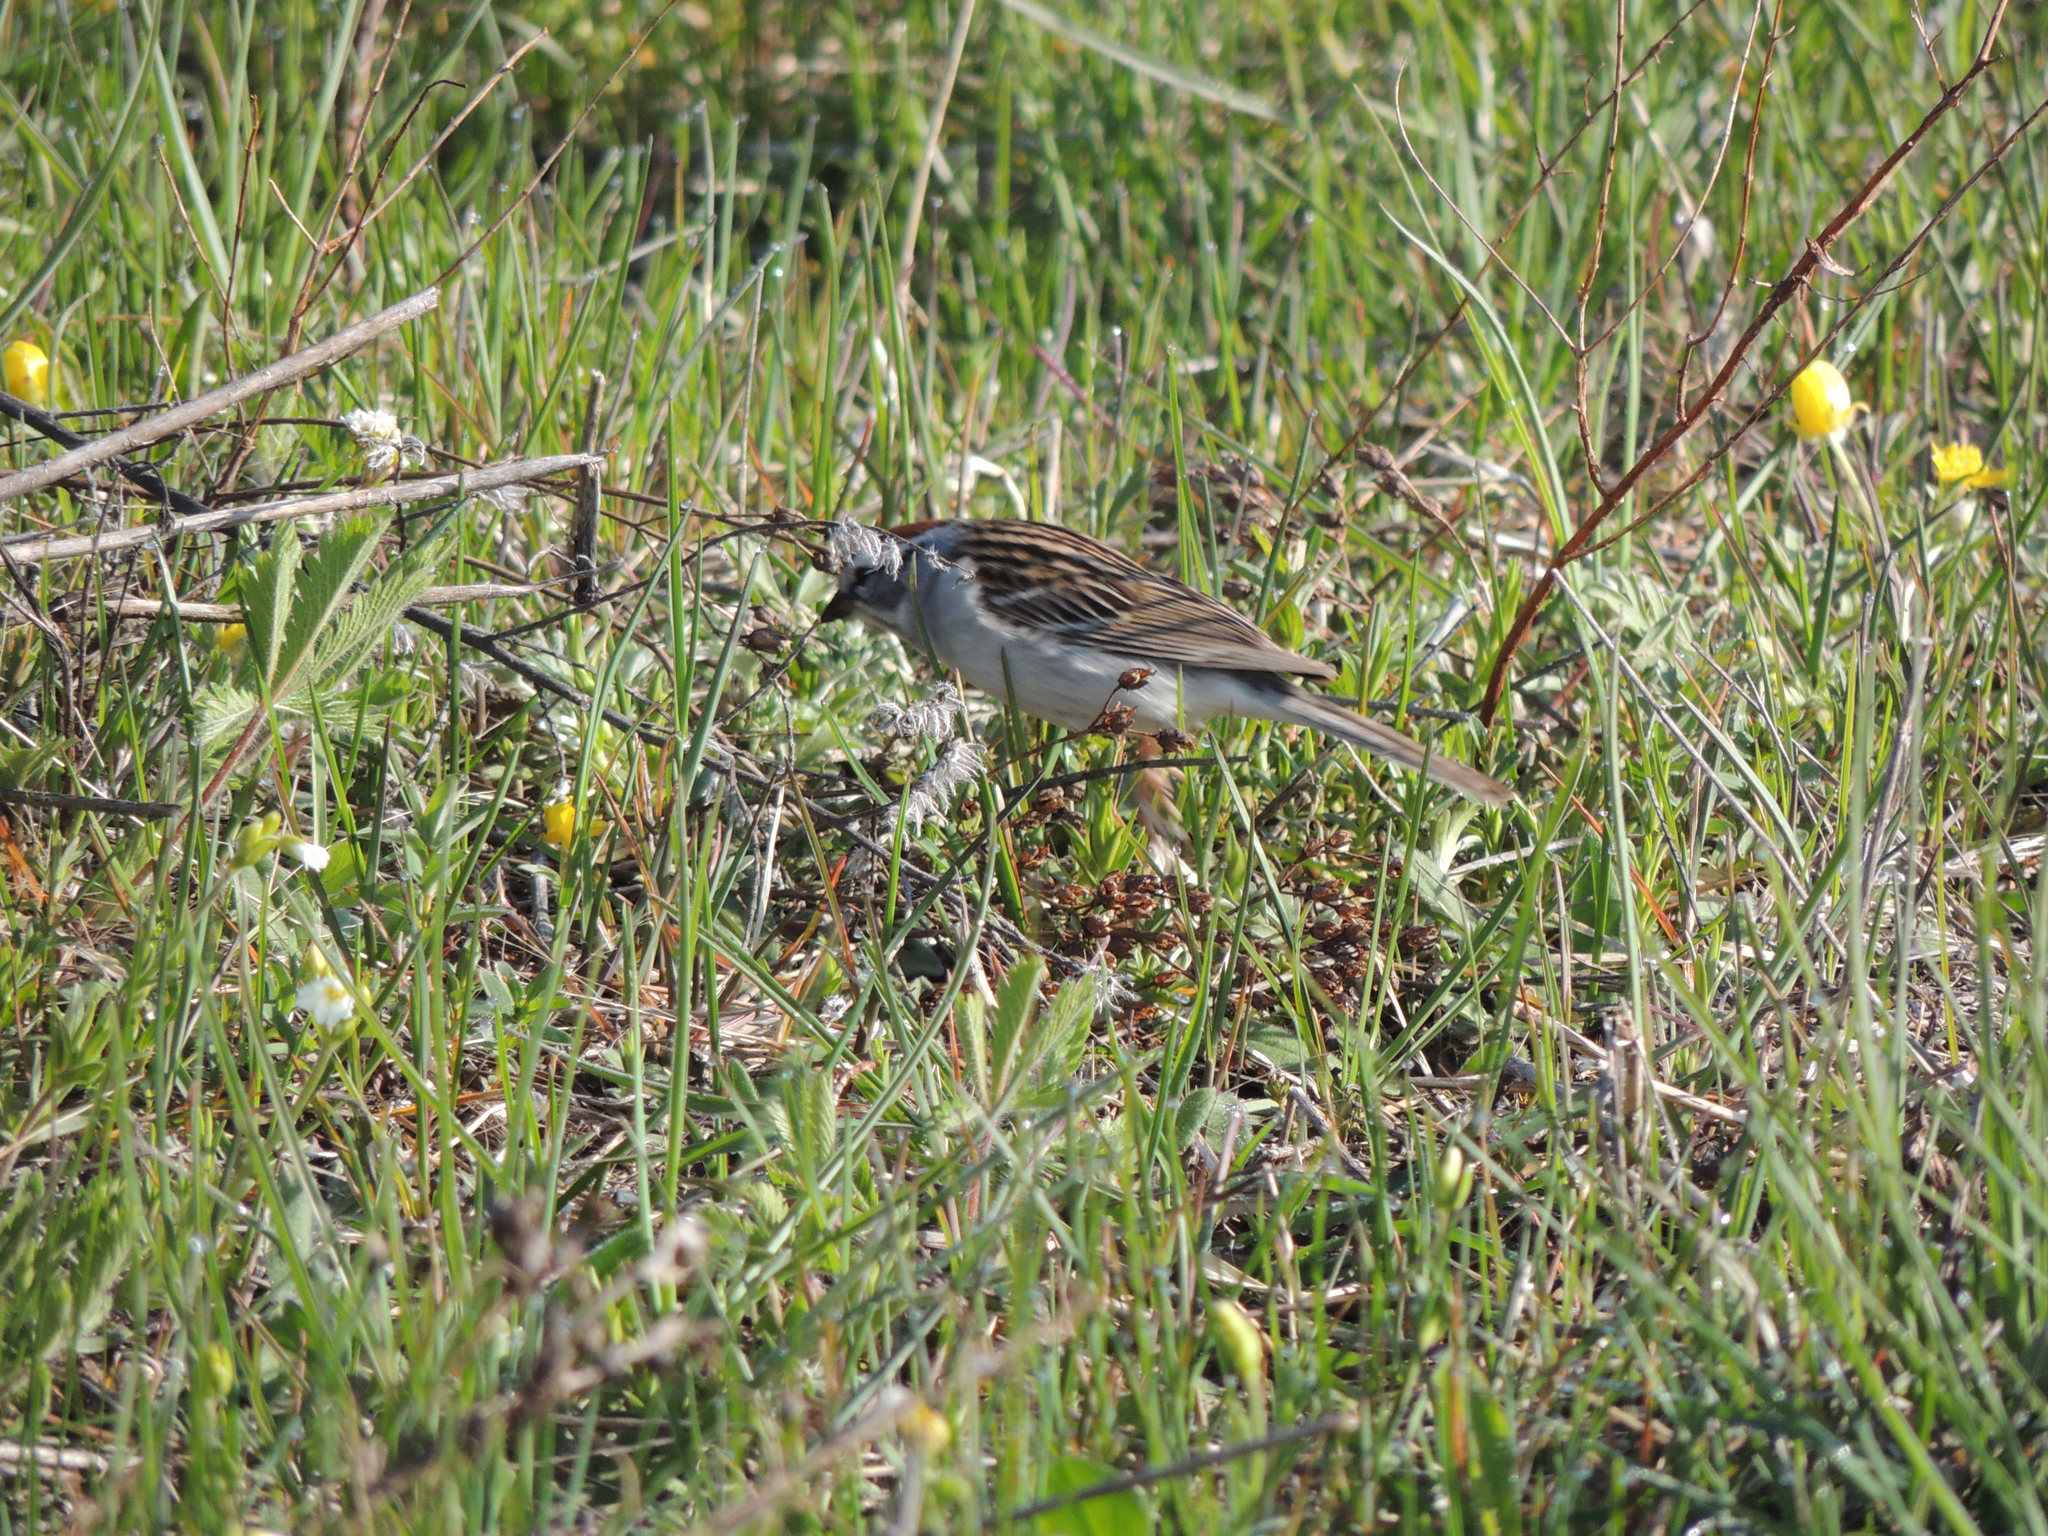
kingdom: Animalia
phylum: Chordata
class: Aves
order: Passeriformes
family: Passerellidae
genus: Spizella
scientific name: Spizella passerina
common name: Chipping sparrow
